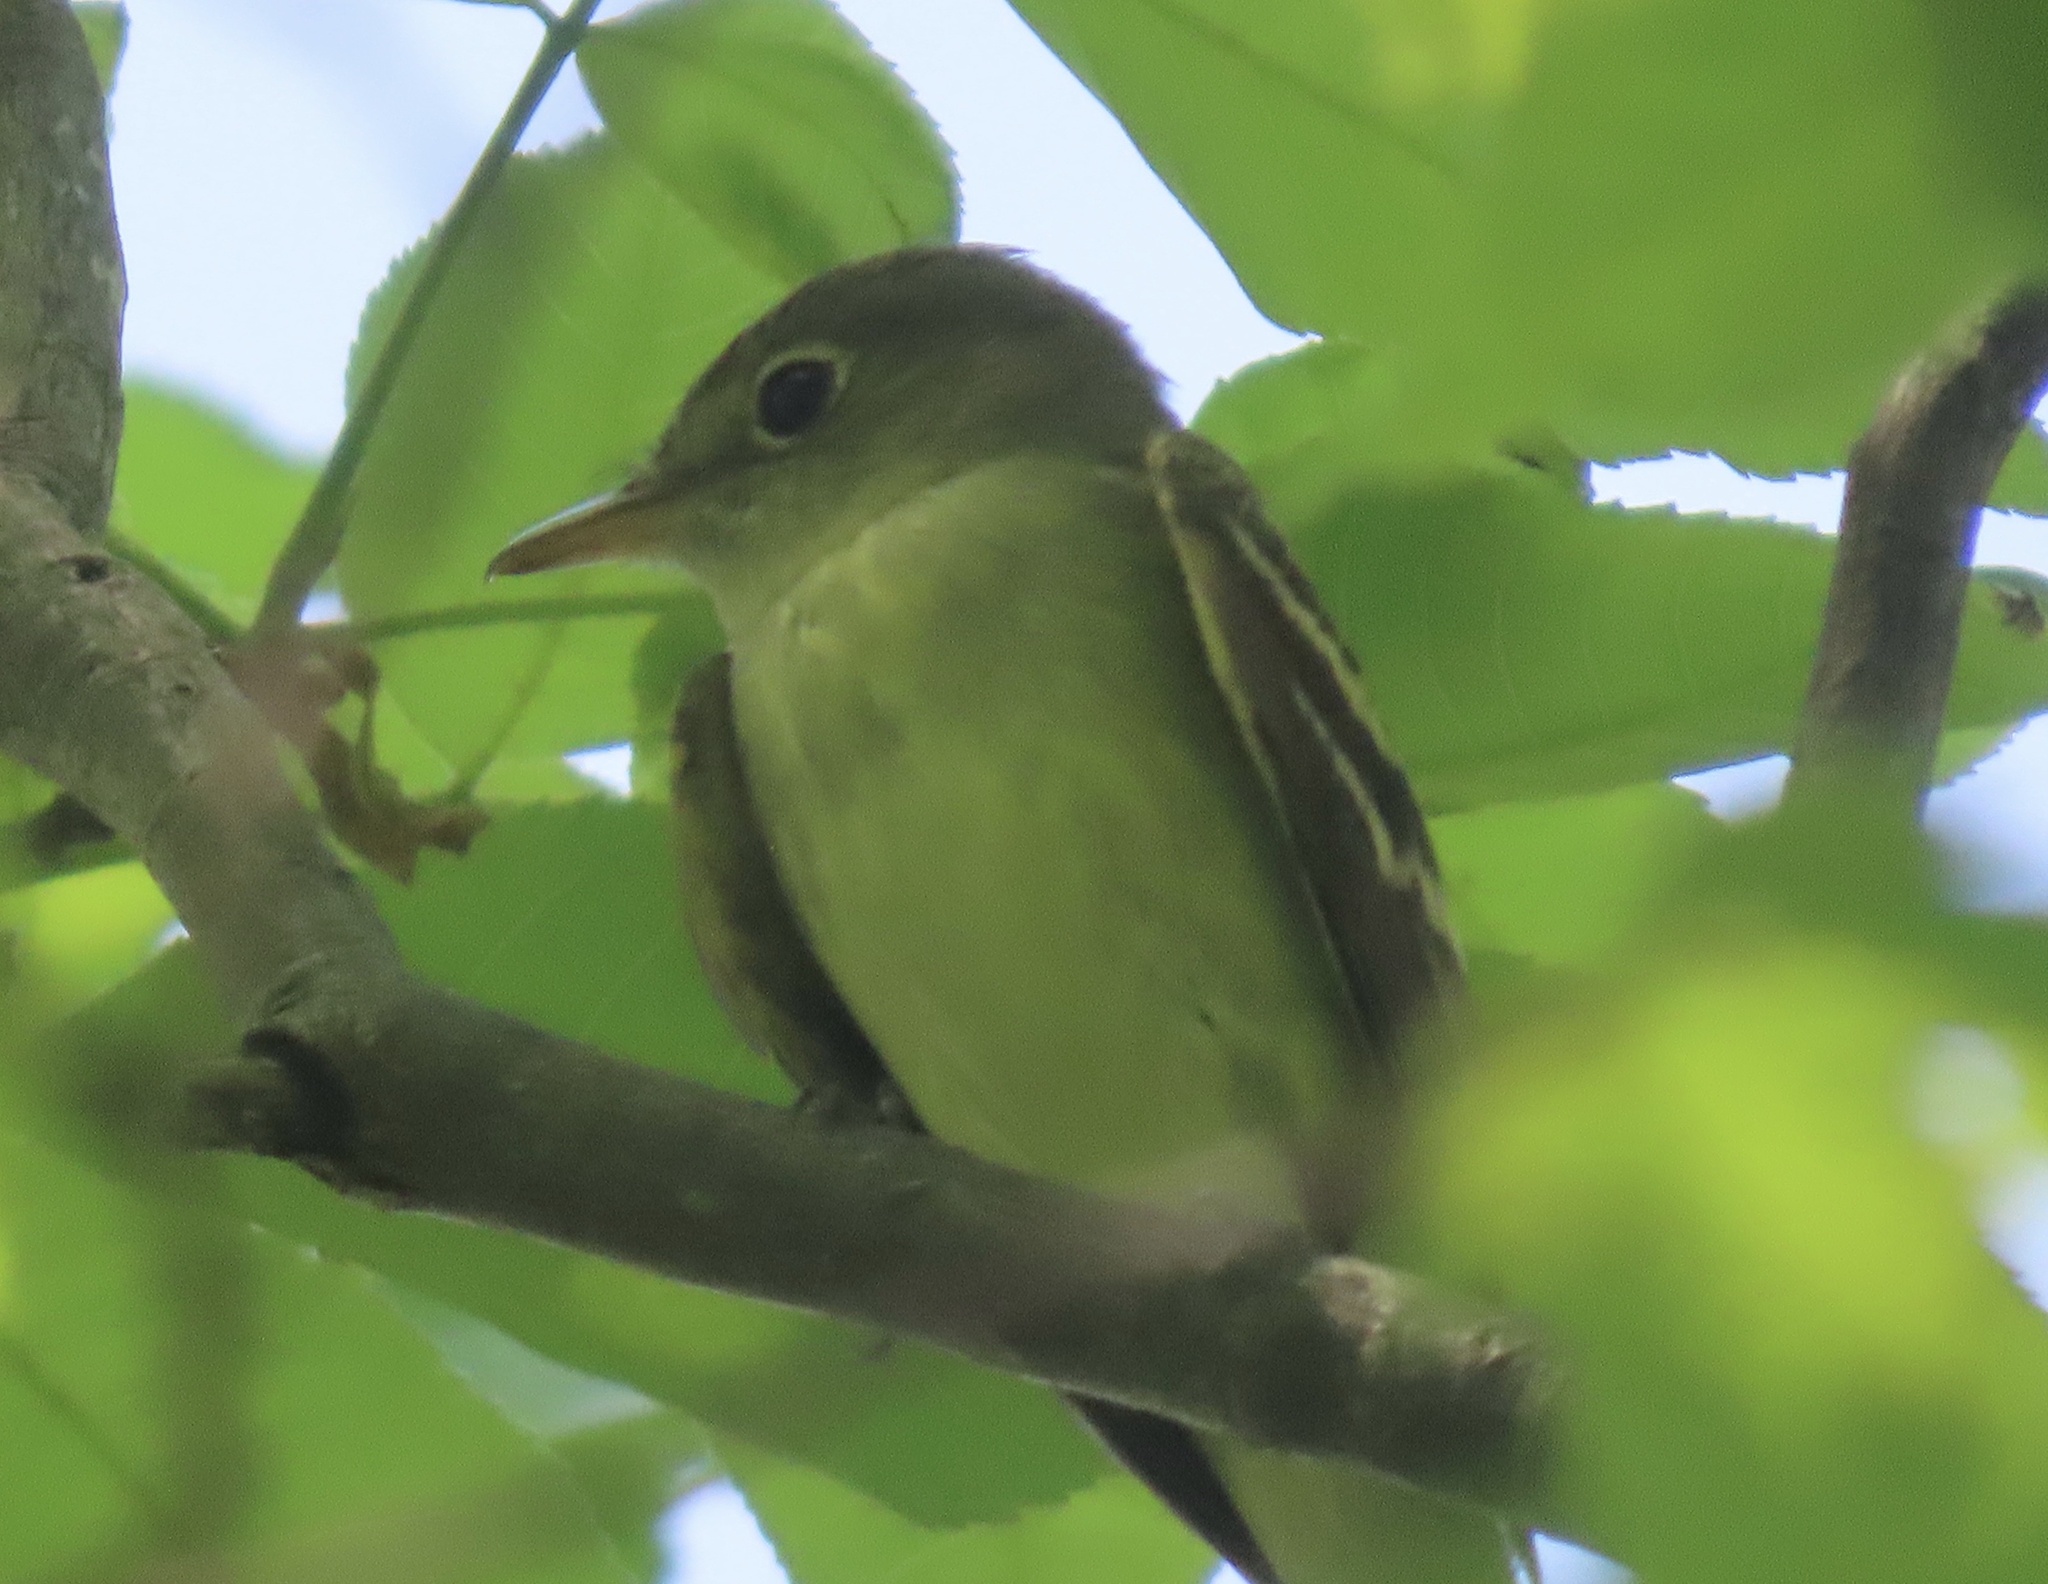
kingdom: Animalia
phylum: Chordata
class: Aves
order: Passeriformes
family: Tyrannidae
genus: Empidonax
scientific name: Empidonax virescens
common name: Acadian flycatcher
